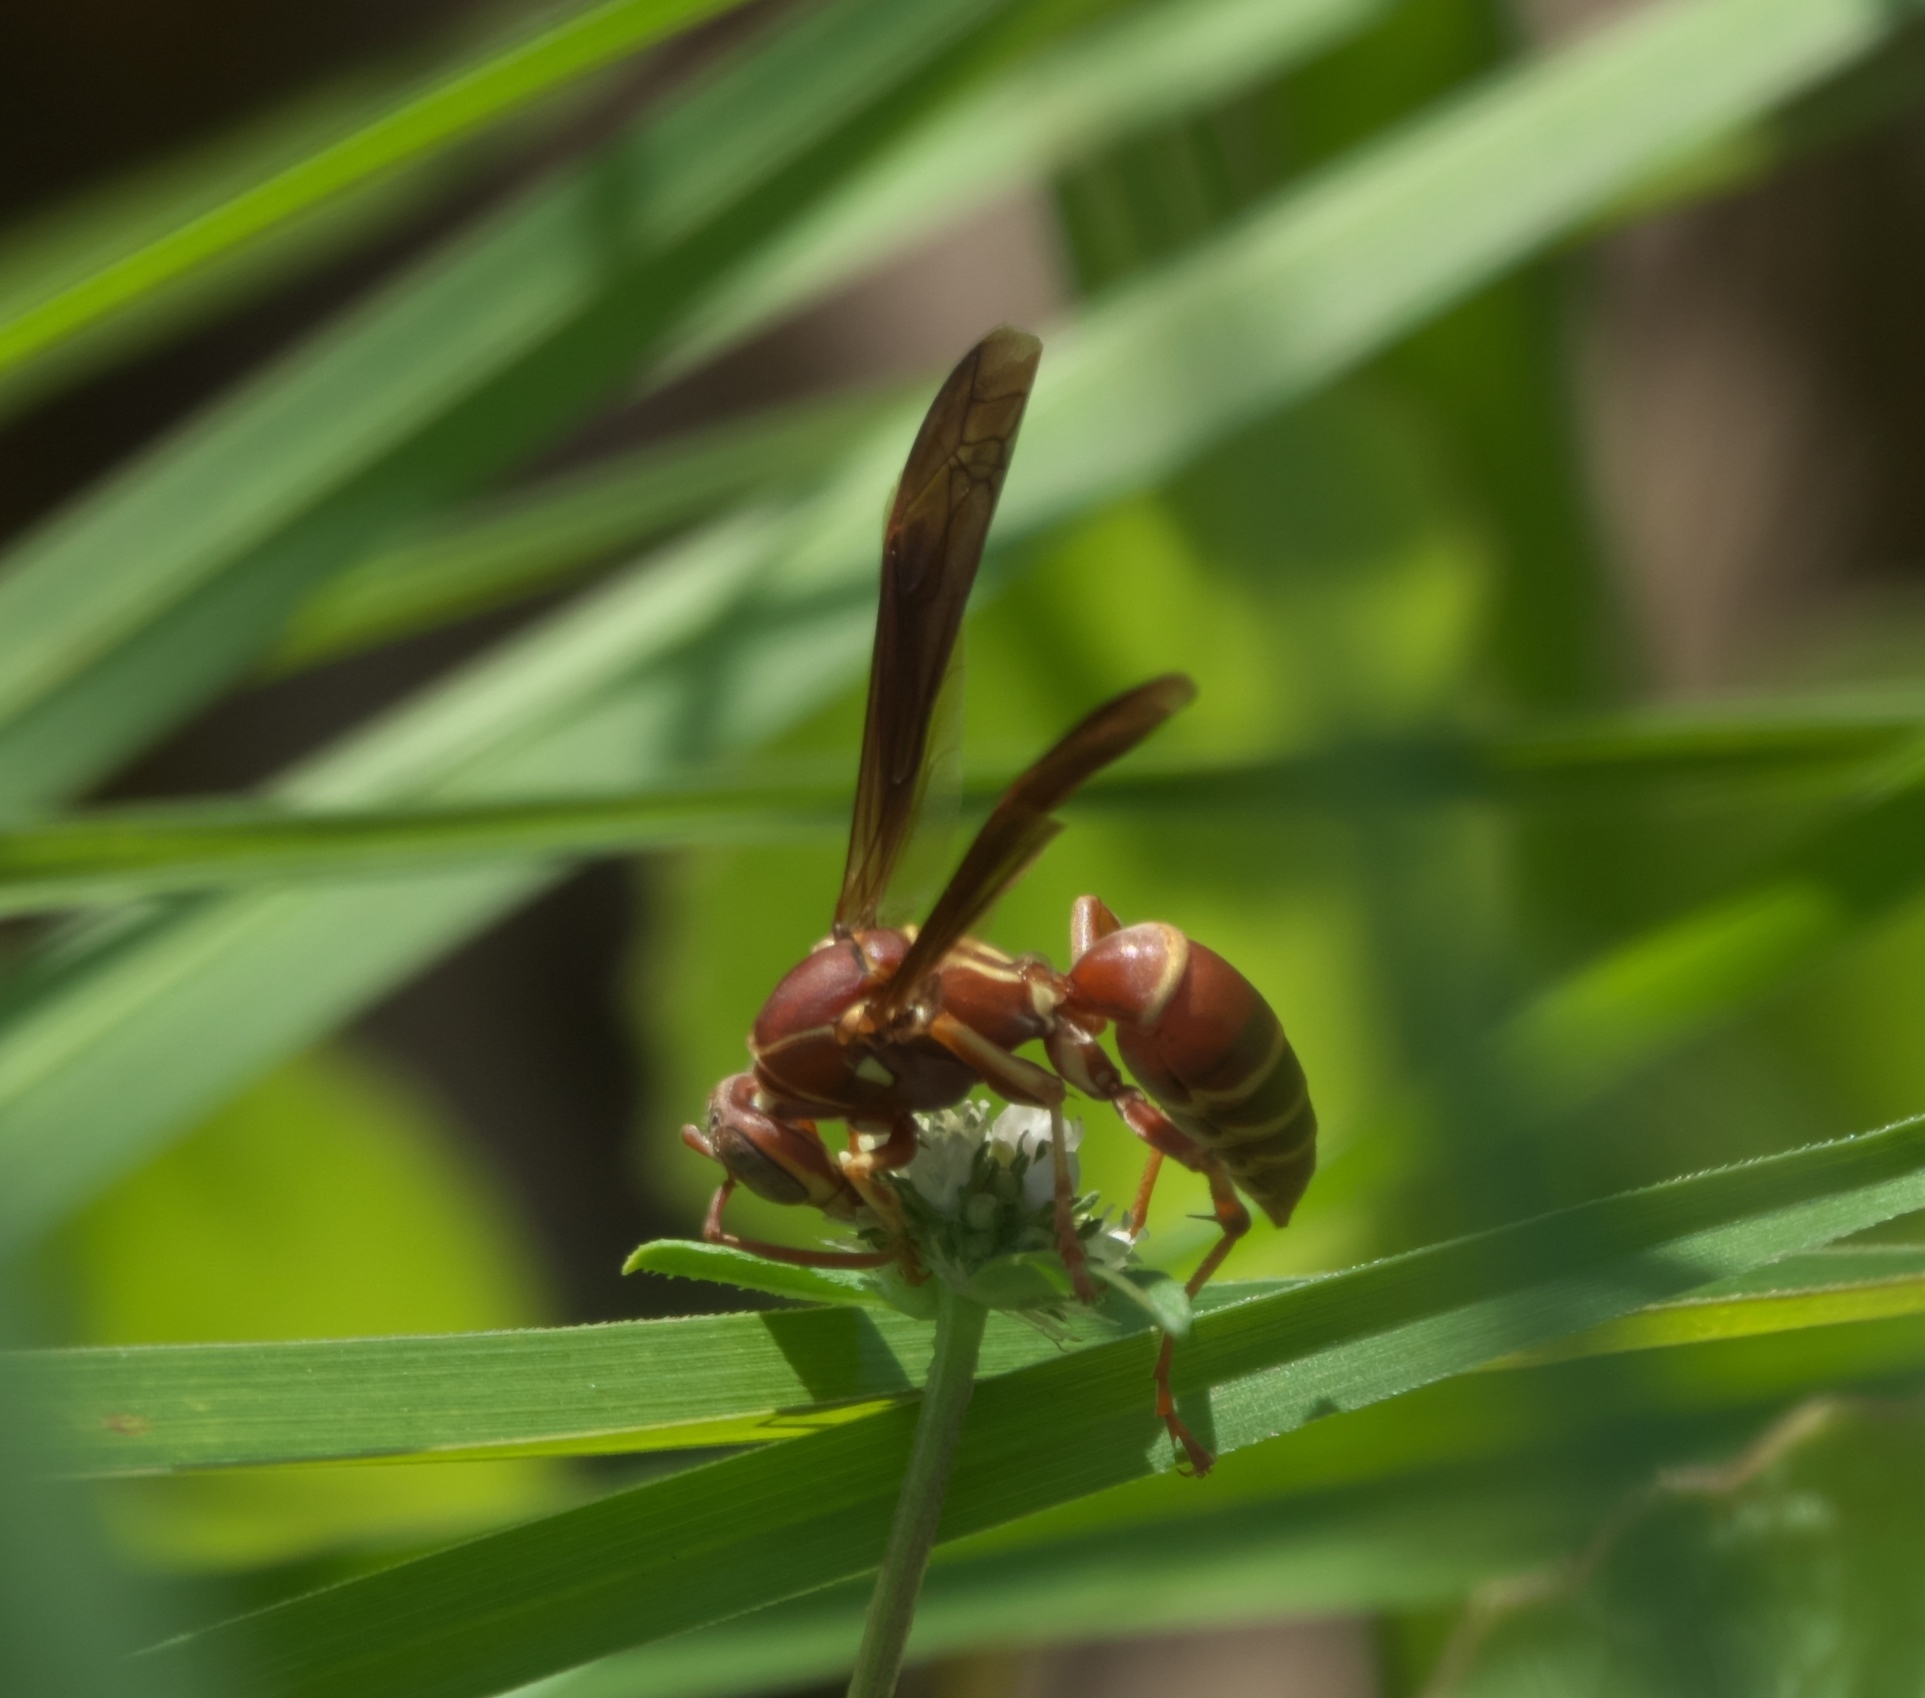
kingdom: Animalia
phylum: Arthropoda
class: Insecta
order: Hymenoptera
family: Eumenidae
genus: Polistes
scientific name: Polistes bellicosus
